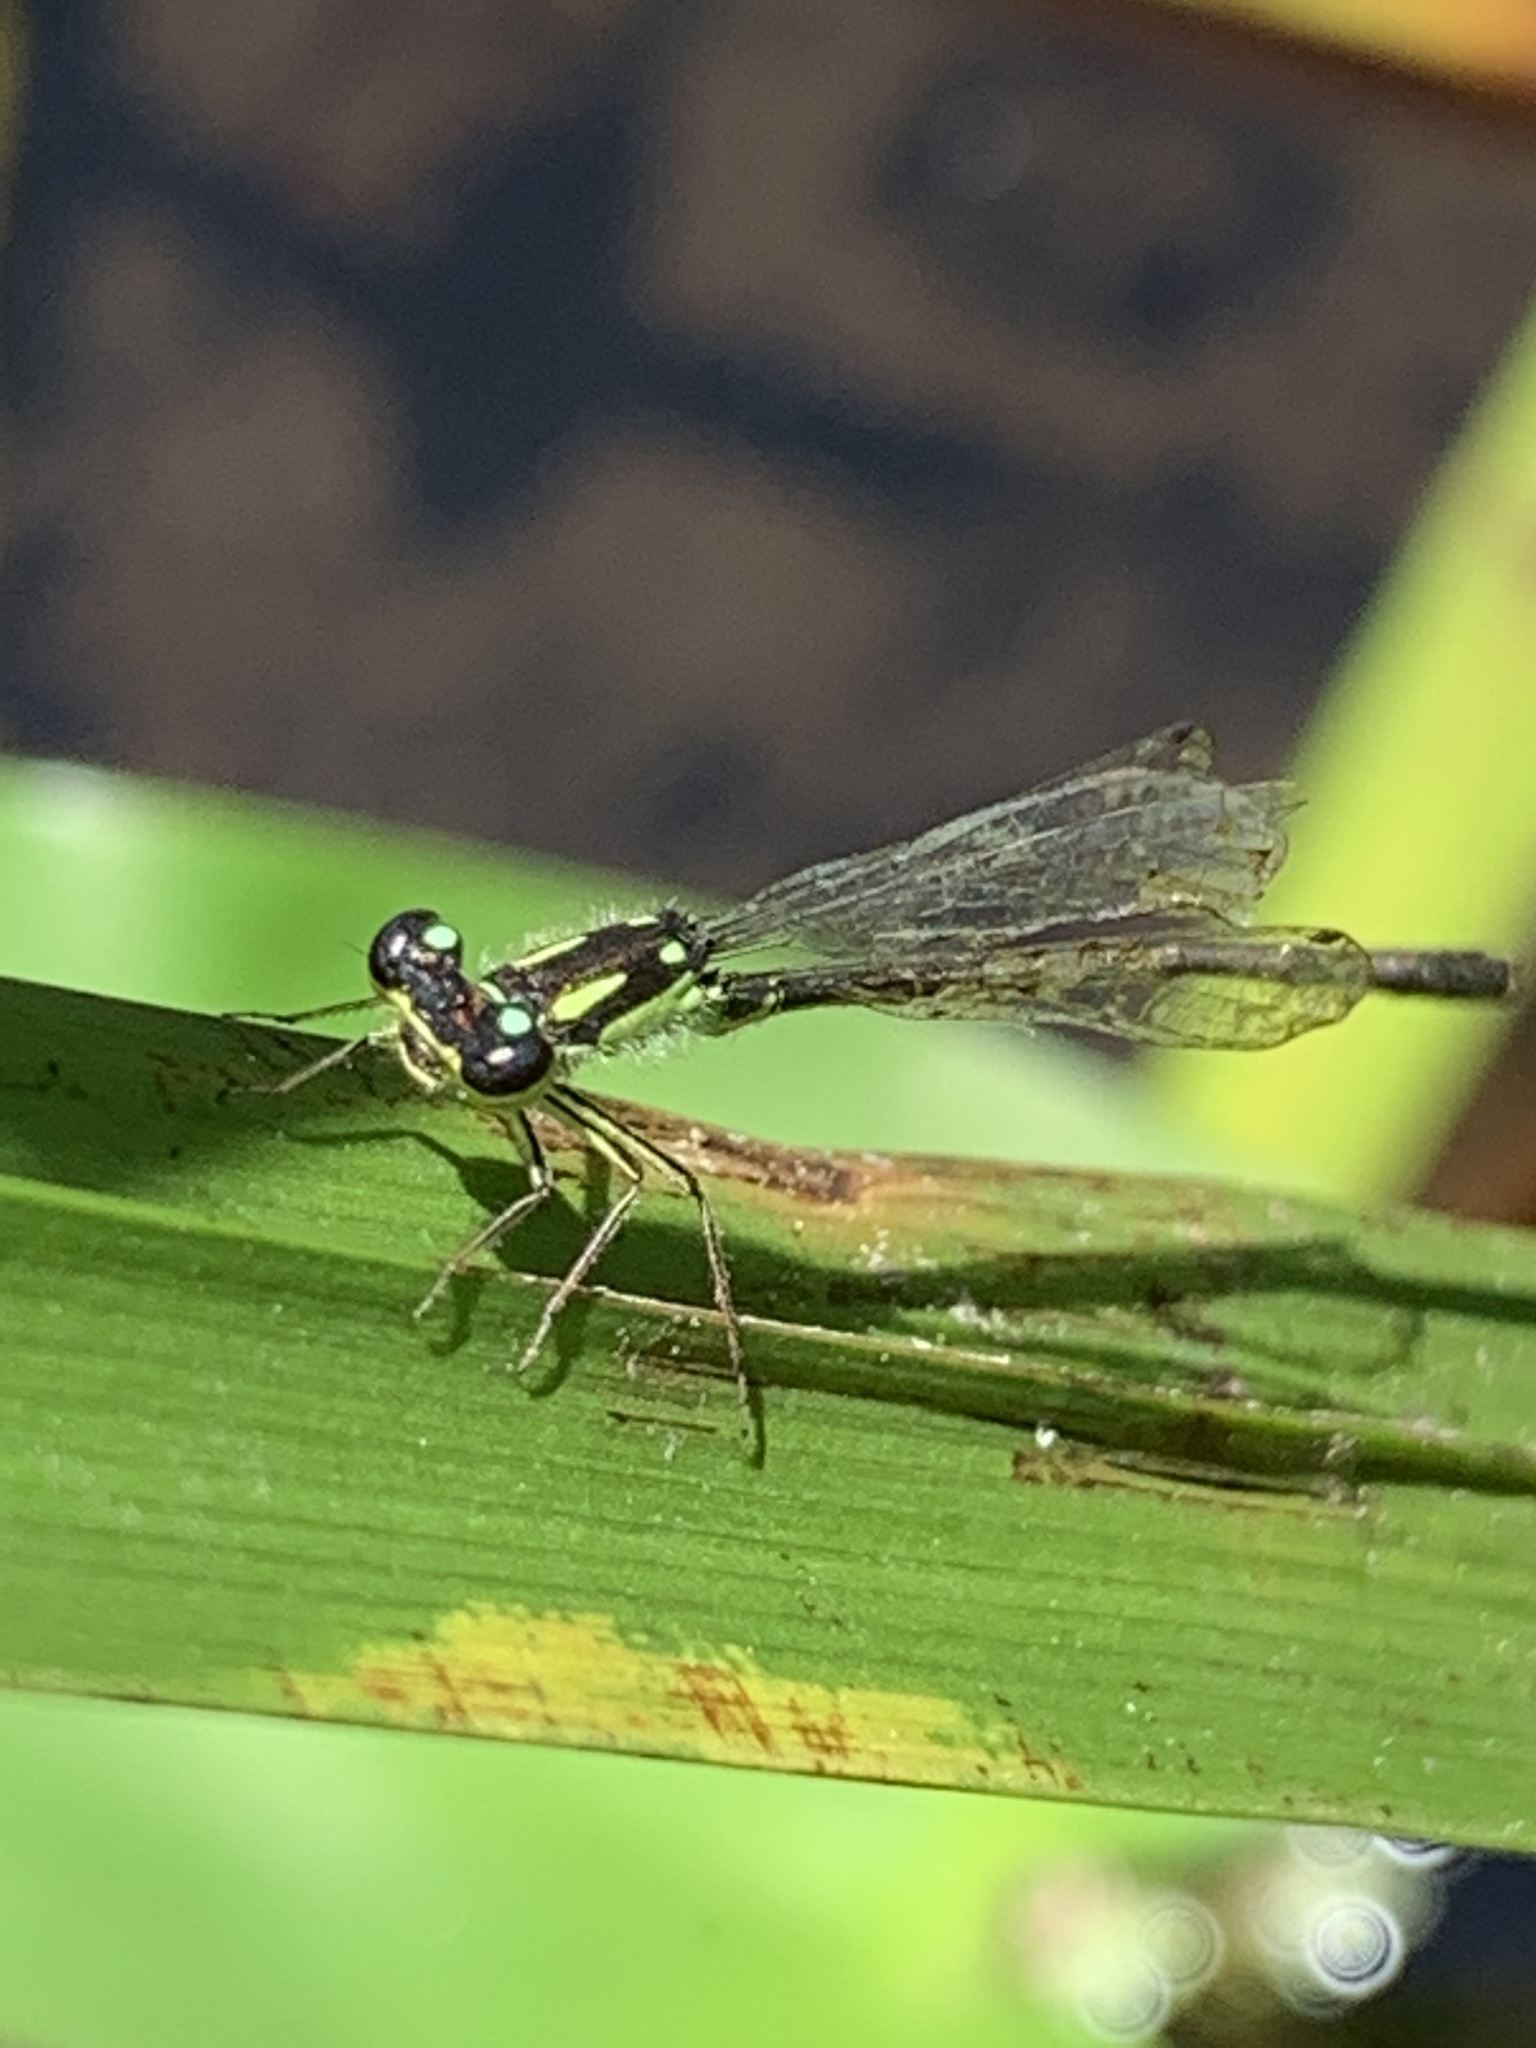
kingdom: Animalia
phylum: Arthropoda
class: Insecta
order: Odonata
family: Coenagrionidae
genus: Ischnura
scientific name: Ischnura posita
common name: Fragile forktail
